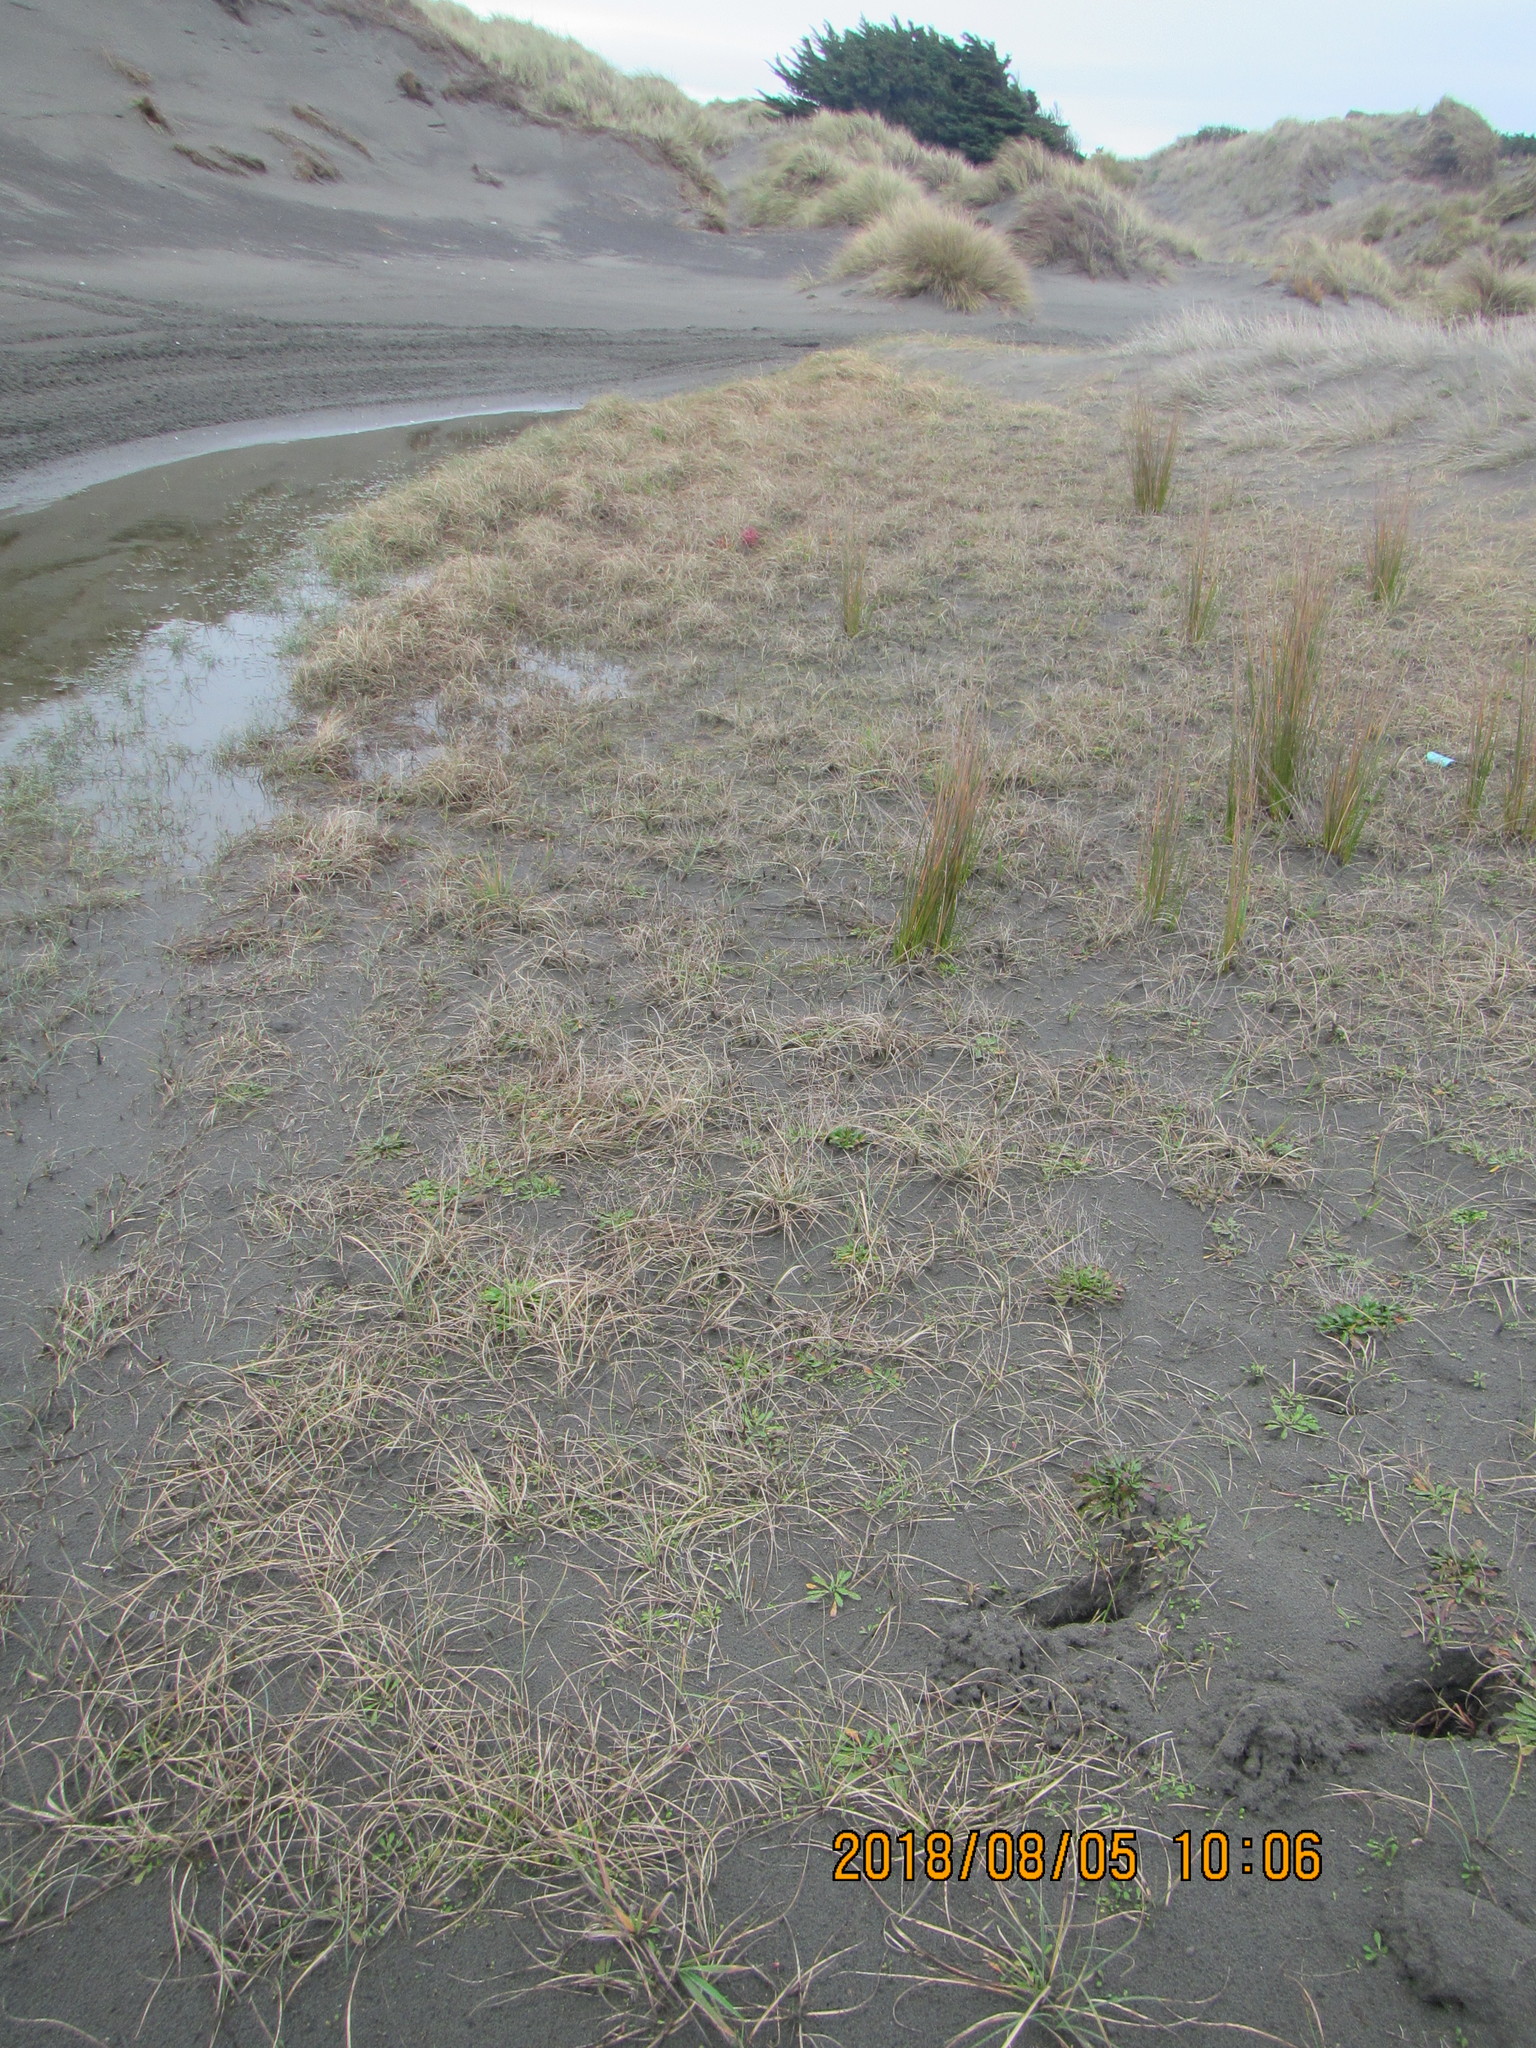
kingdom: Plantae
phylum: Tracheophyta
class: Liliopsida
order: Poales
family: Cyperaceae
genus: Carex
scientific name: Carex pumila
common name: Dwarf sedge
